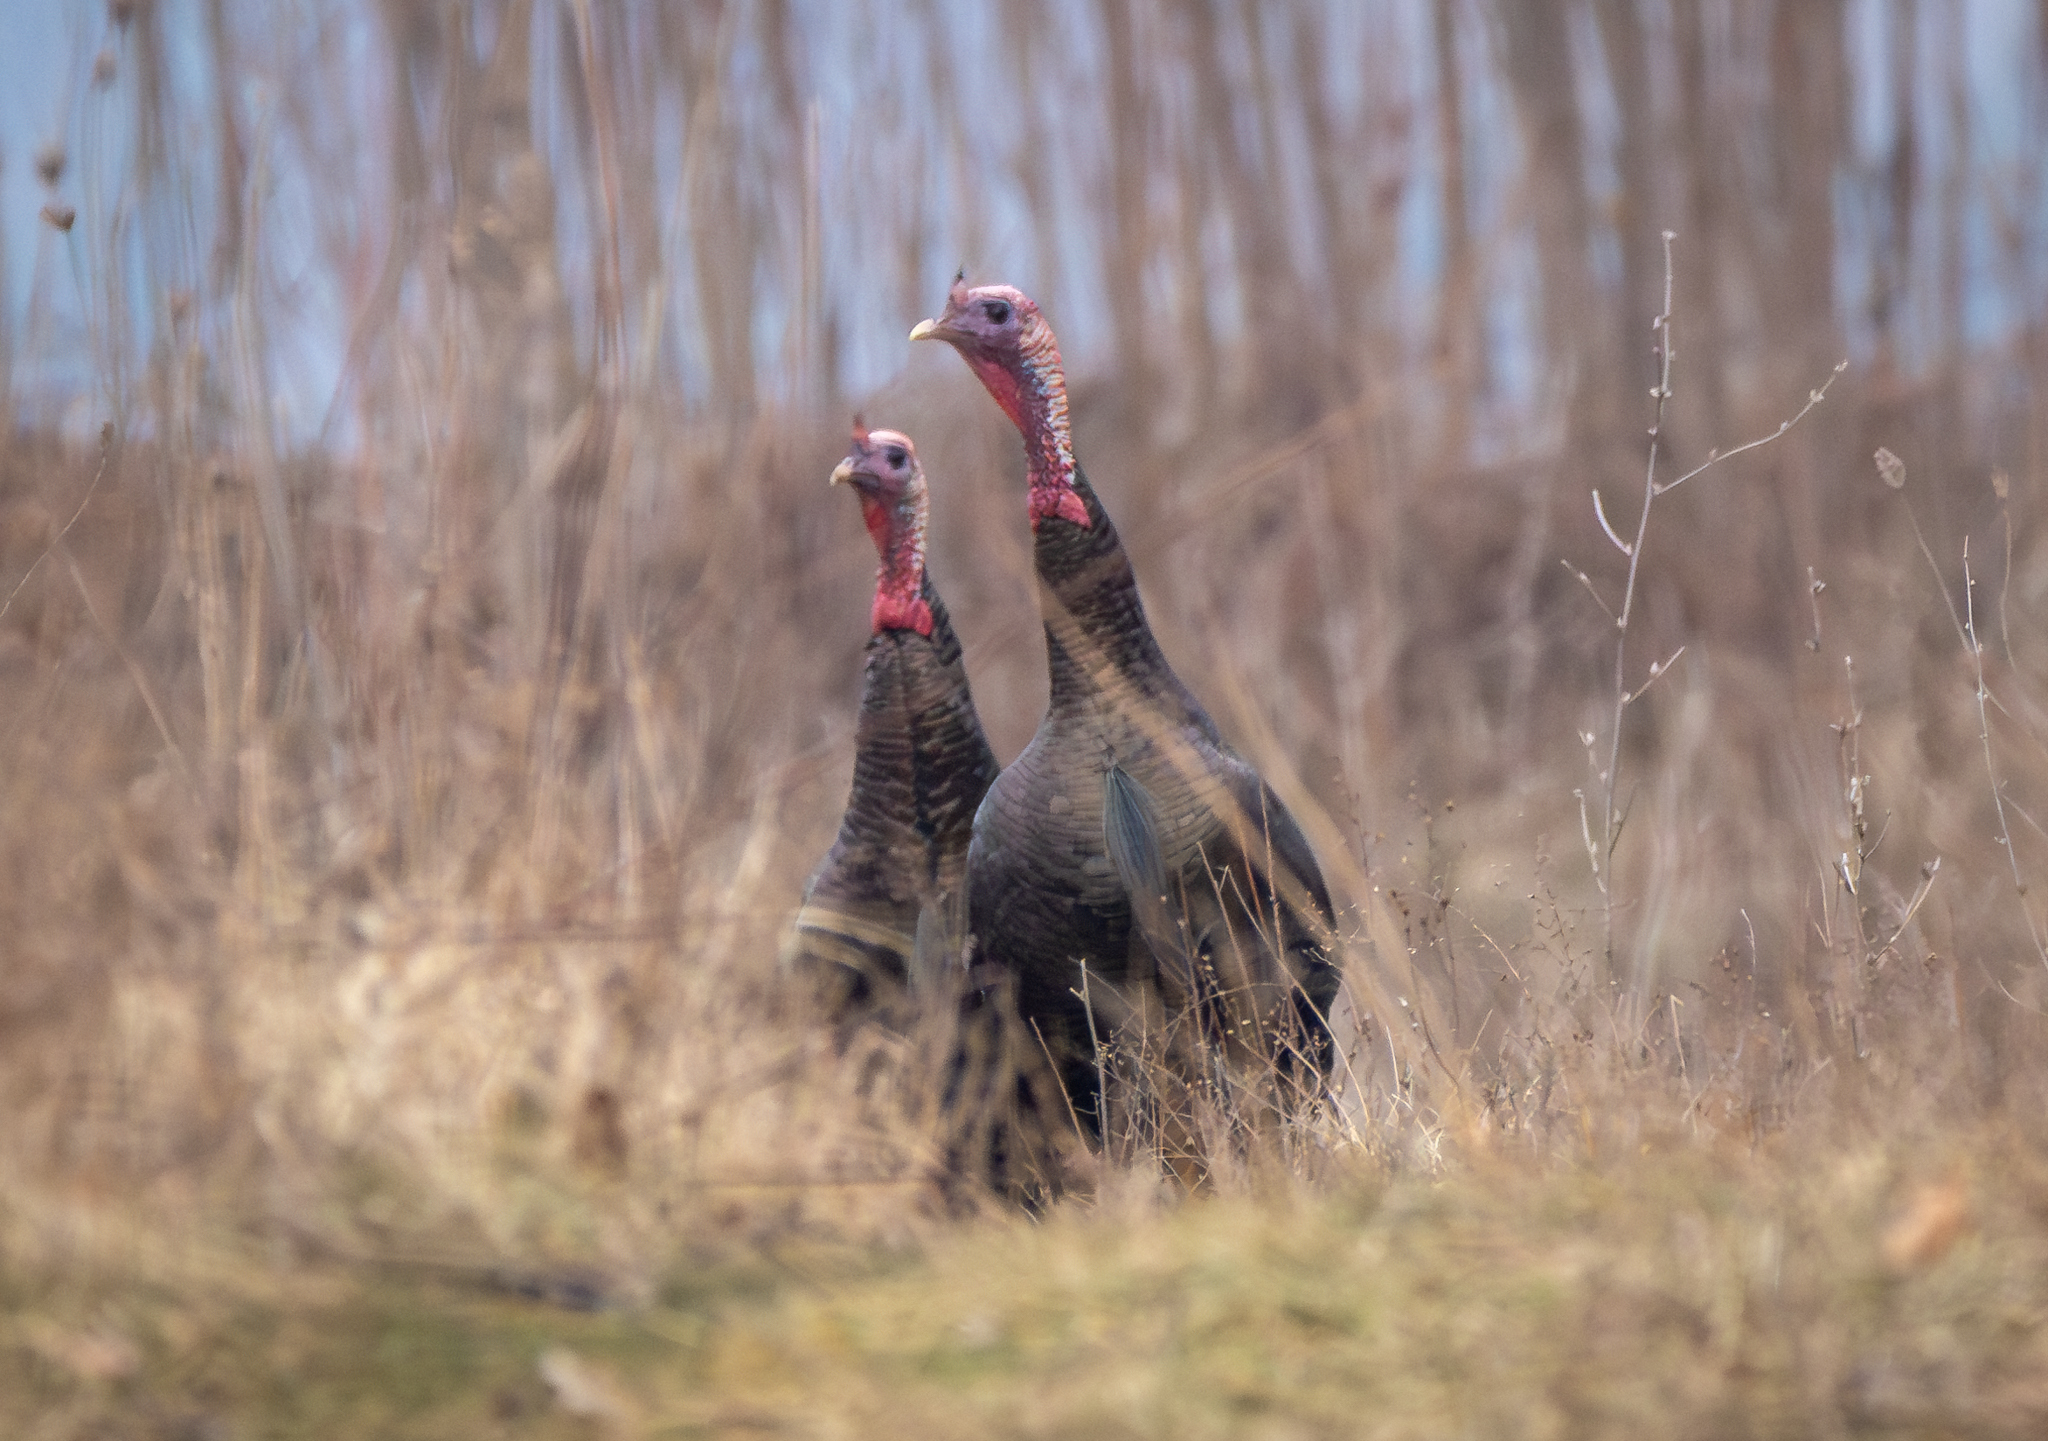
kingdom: Animalia
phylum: Chordata
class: Aves
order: Galliformes
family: Phasianidae
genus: Meleagris
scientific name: Meleagris gallopavo
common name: Wild turkey
